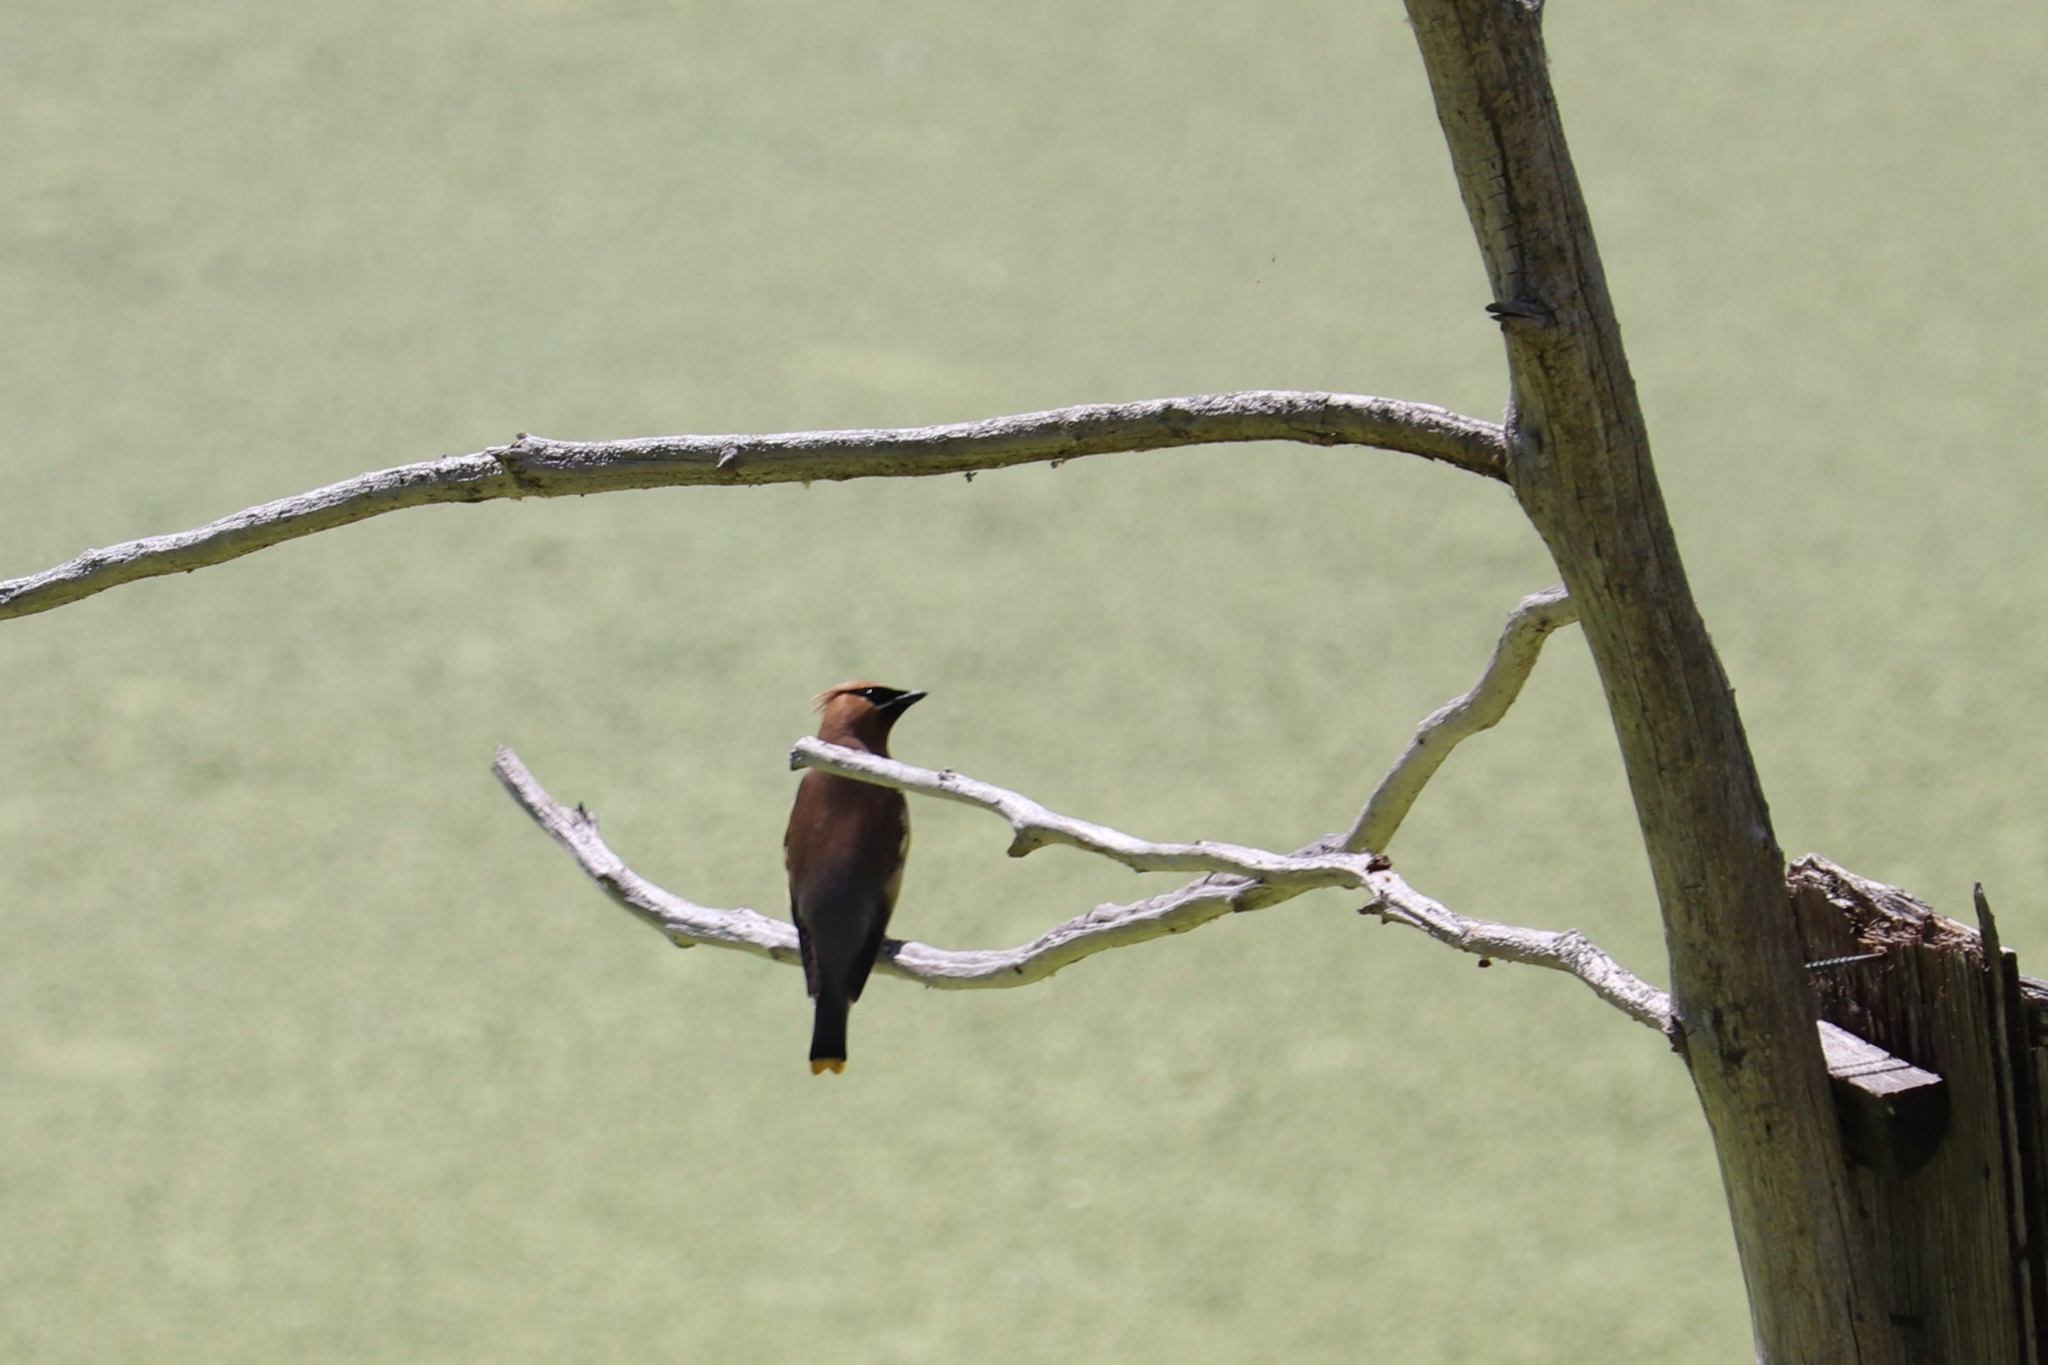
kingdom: Animalia
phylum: Chordata
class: Aves
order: Passeriformes
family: Bombycillidae
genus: Bombycilla
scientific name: Bombycilla cedrorum
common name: Cedar waxwing
